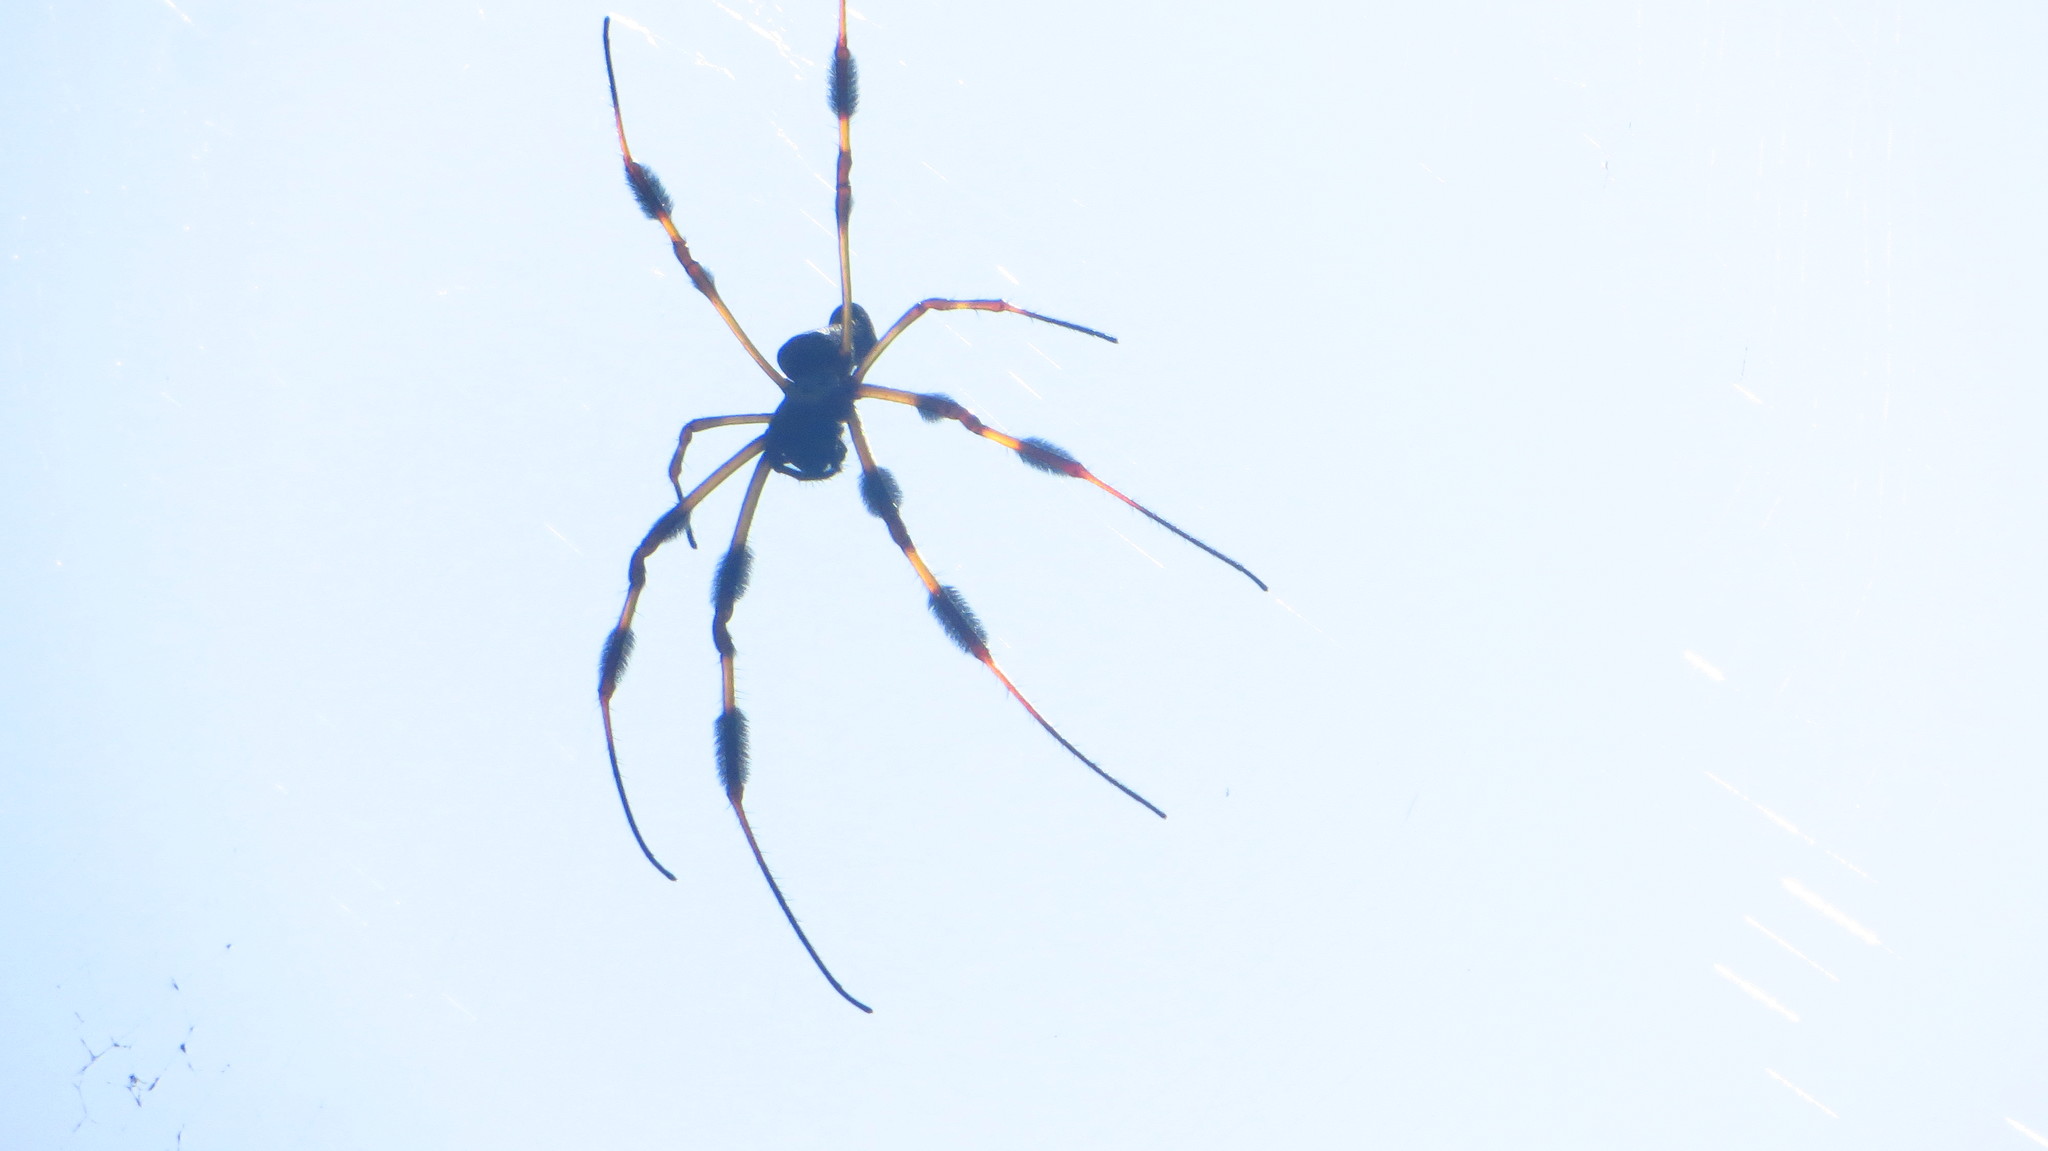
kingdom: Animalia
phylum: Arthropoda
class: Arachnida
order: Araneae
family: Araneidae
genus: Trichonephila
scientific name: Trichonephila clavipes
